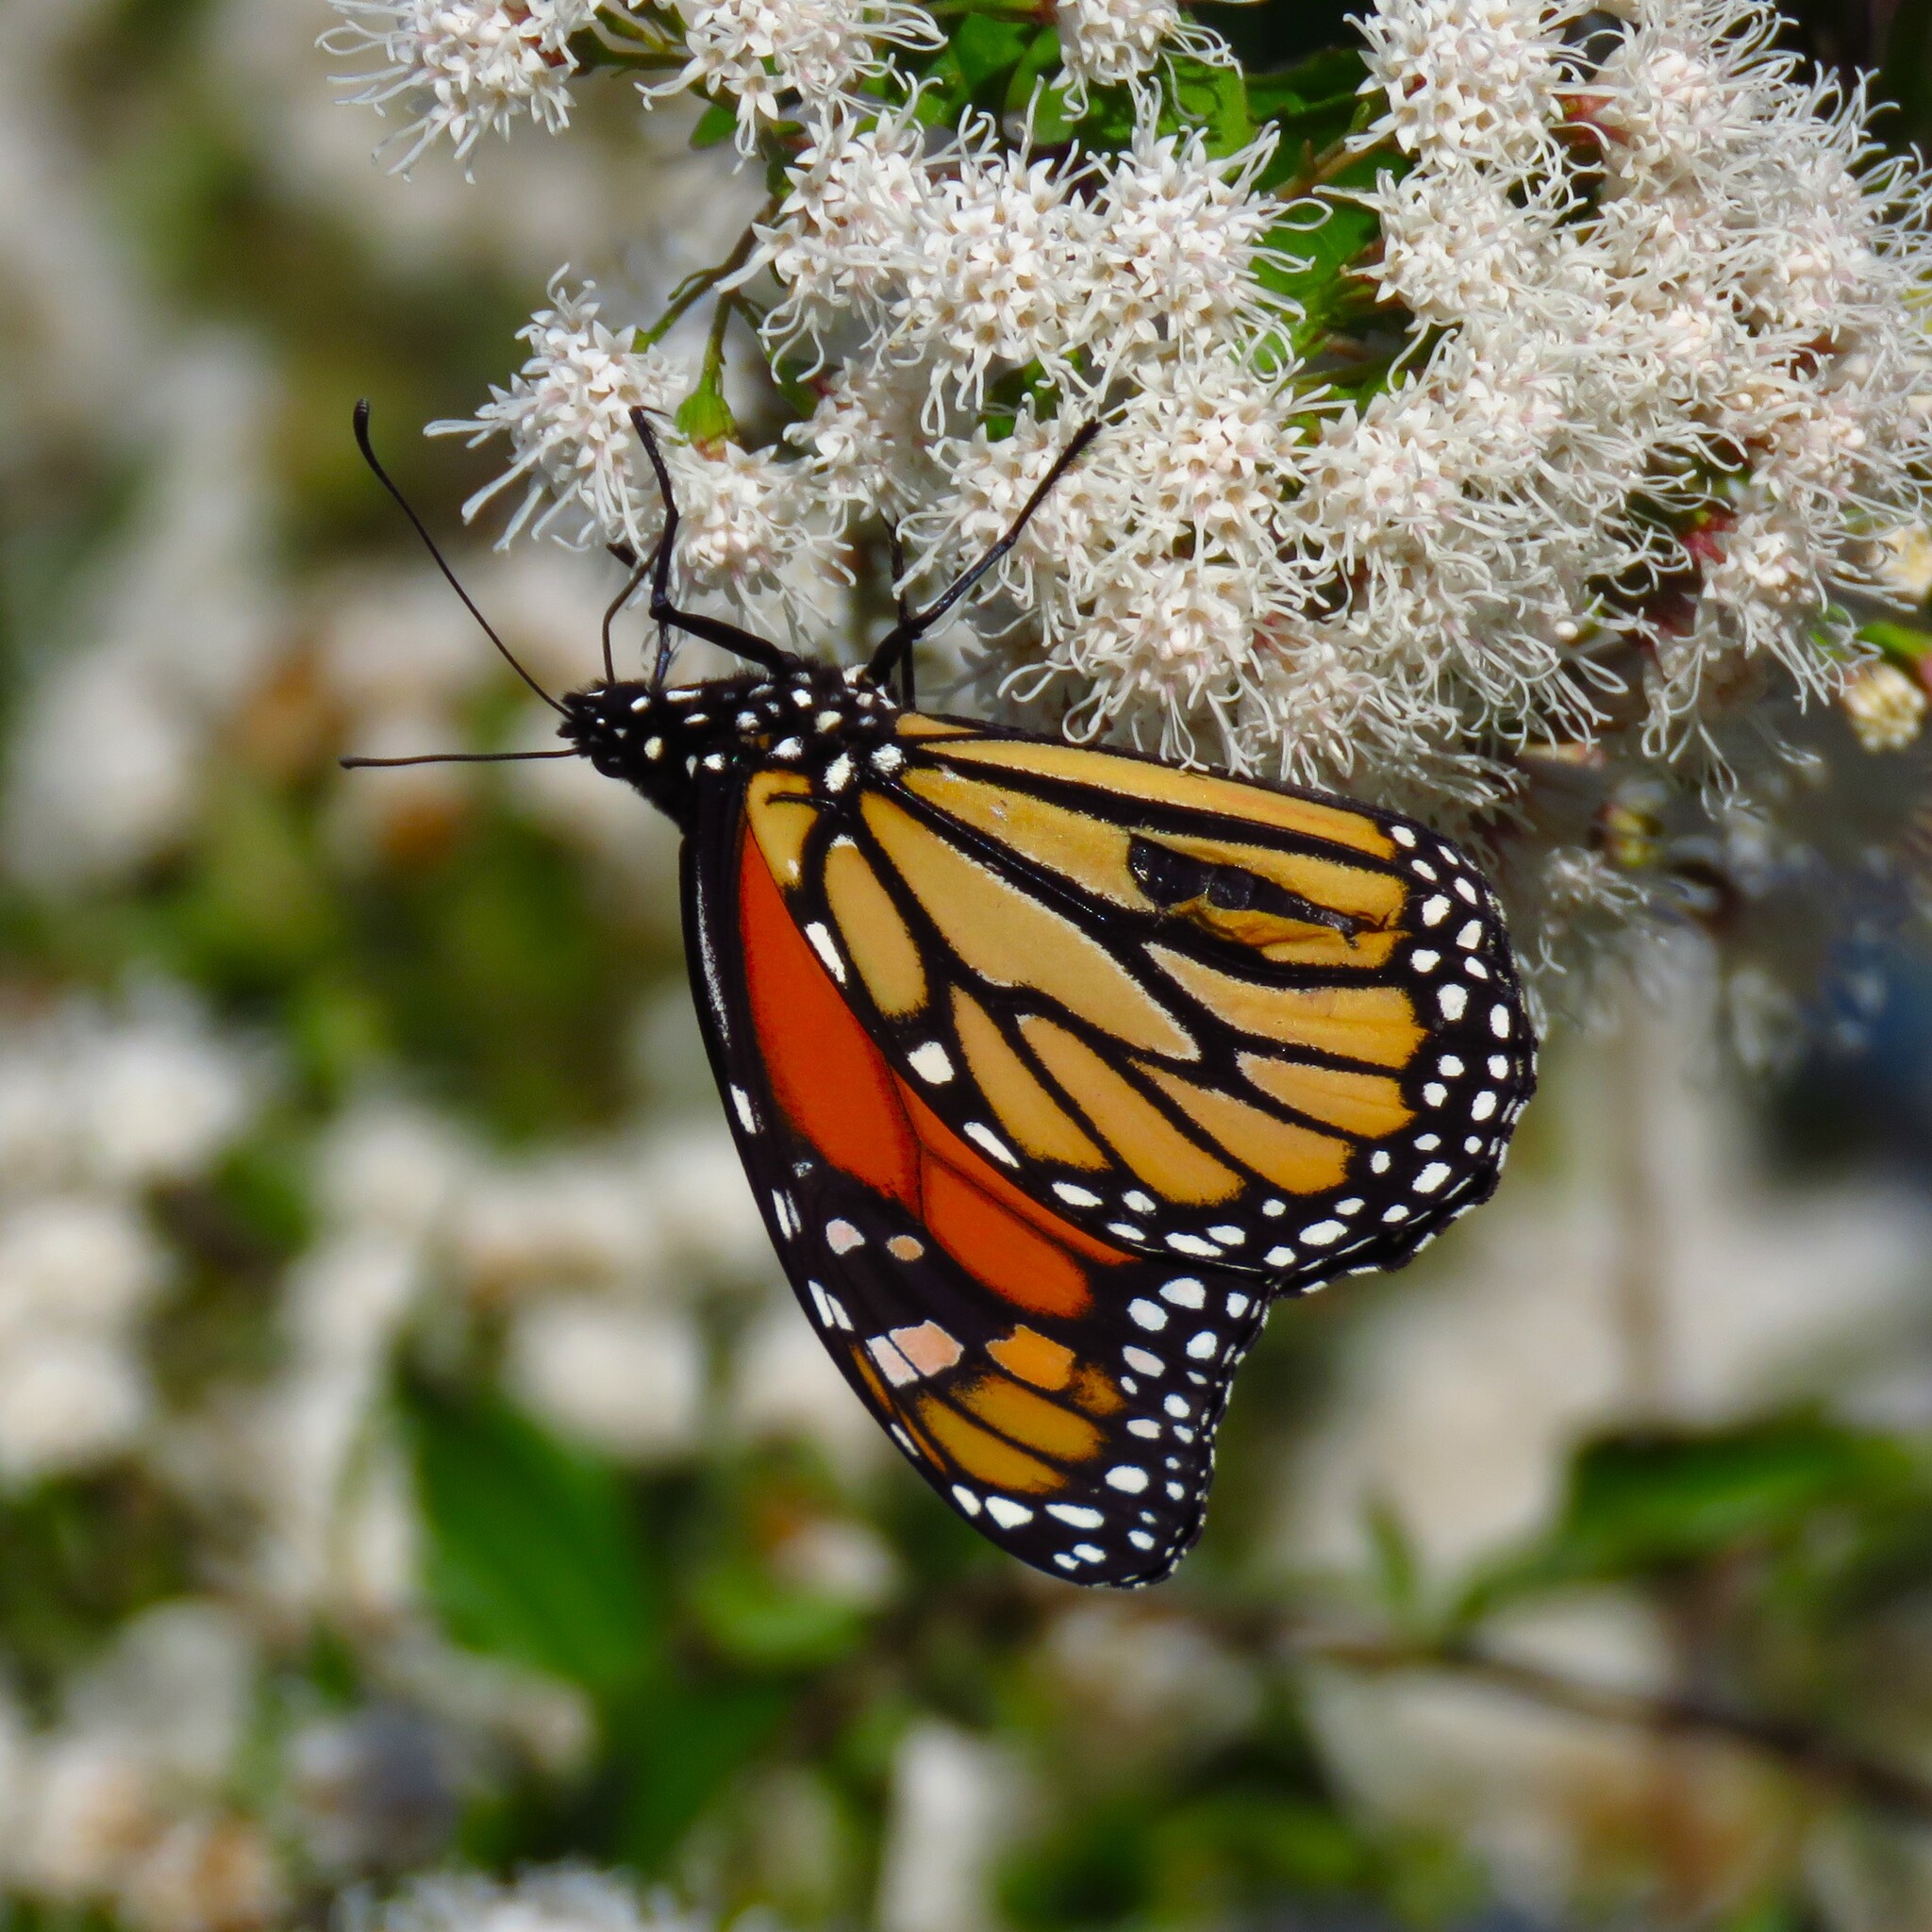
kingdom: Animalia
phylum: Arthropoda
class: Insecta
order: Lepidoptera
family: Nymphalidae
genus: Danaus
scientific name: Danaus plexippus
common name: Monarch
